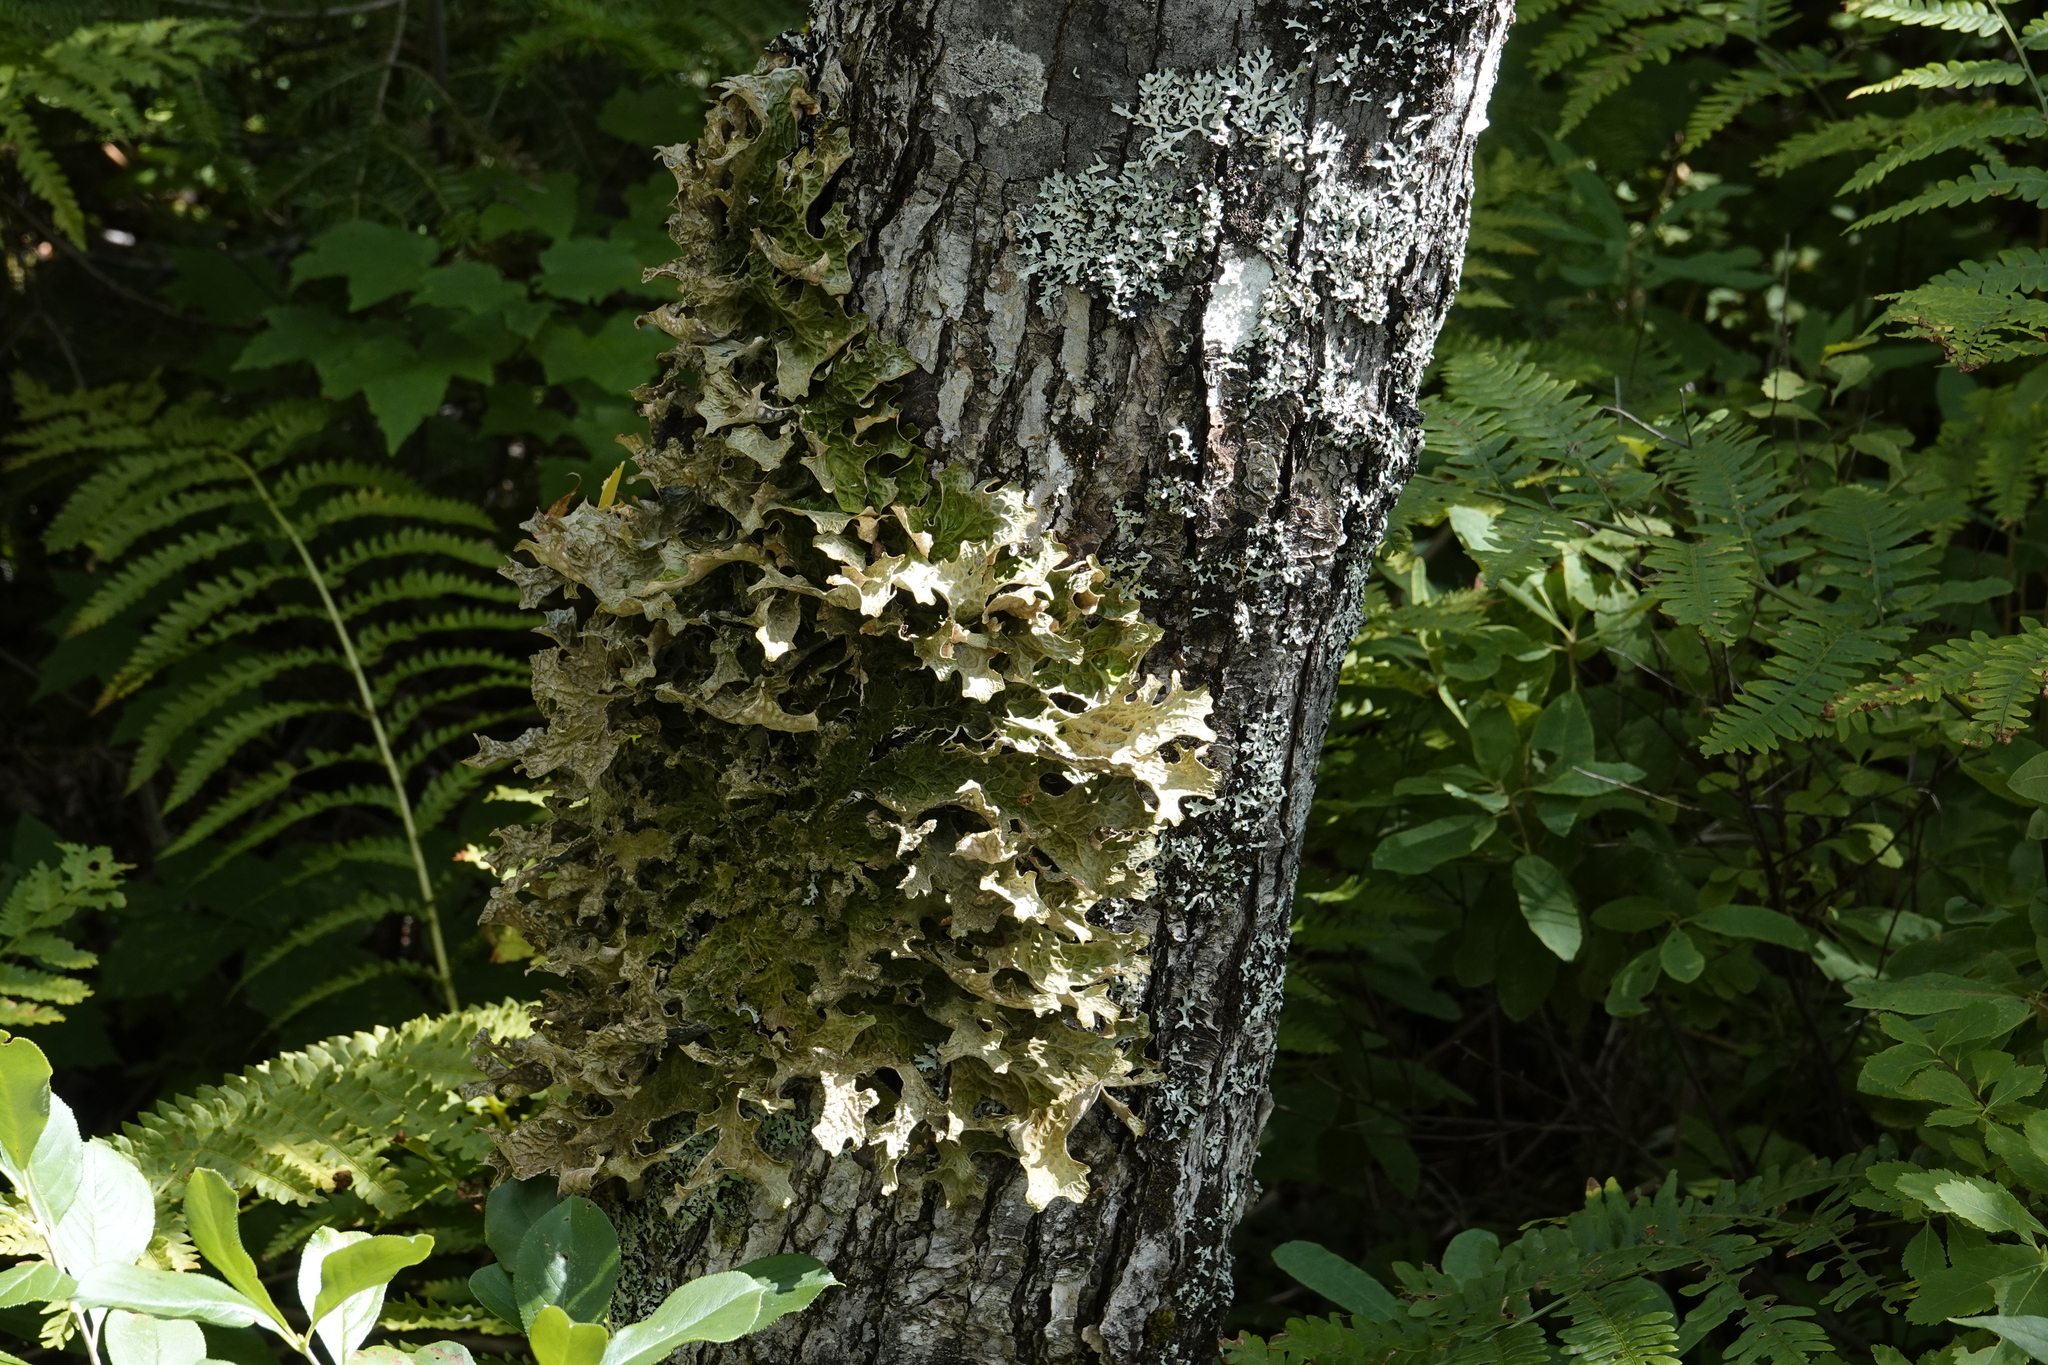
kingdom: Fungi
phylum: Ascomycota
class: Lecanoromycetes
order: Peltigerales
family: Lobariaceae
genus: Lobaria
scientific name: Lobaria pulmonaria
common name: Lungwort
